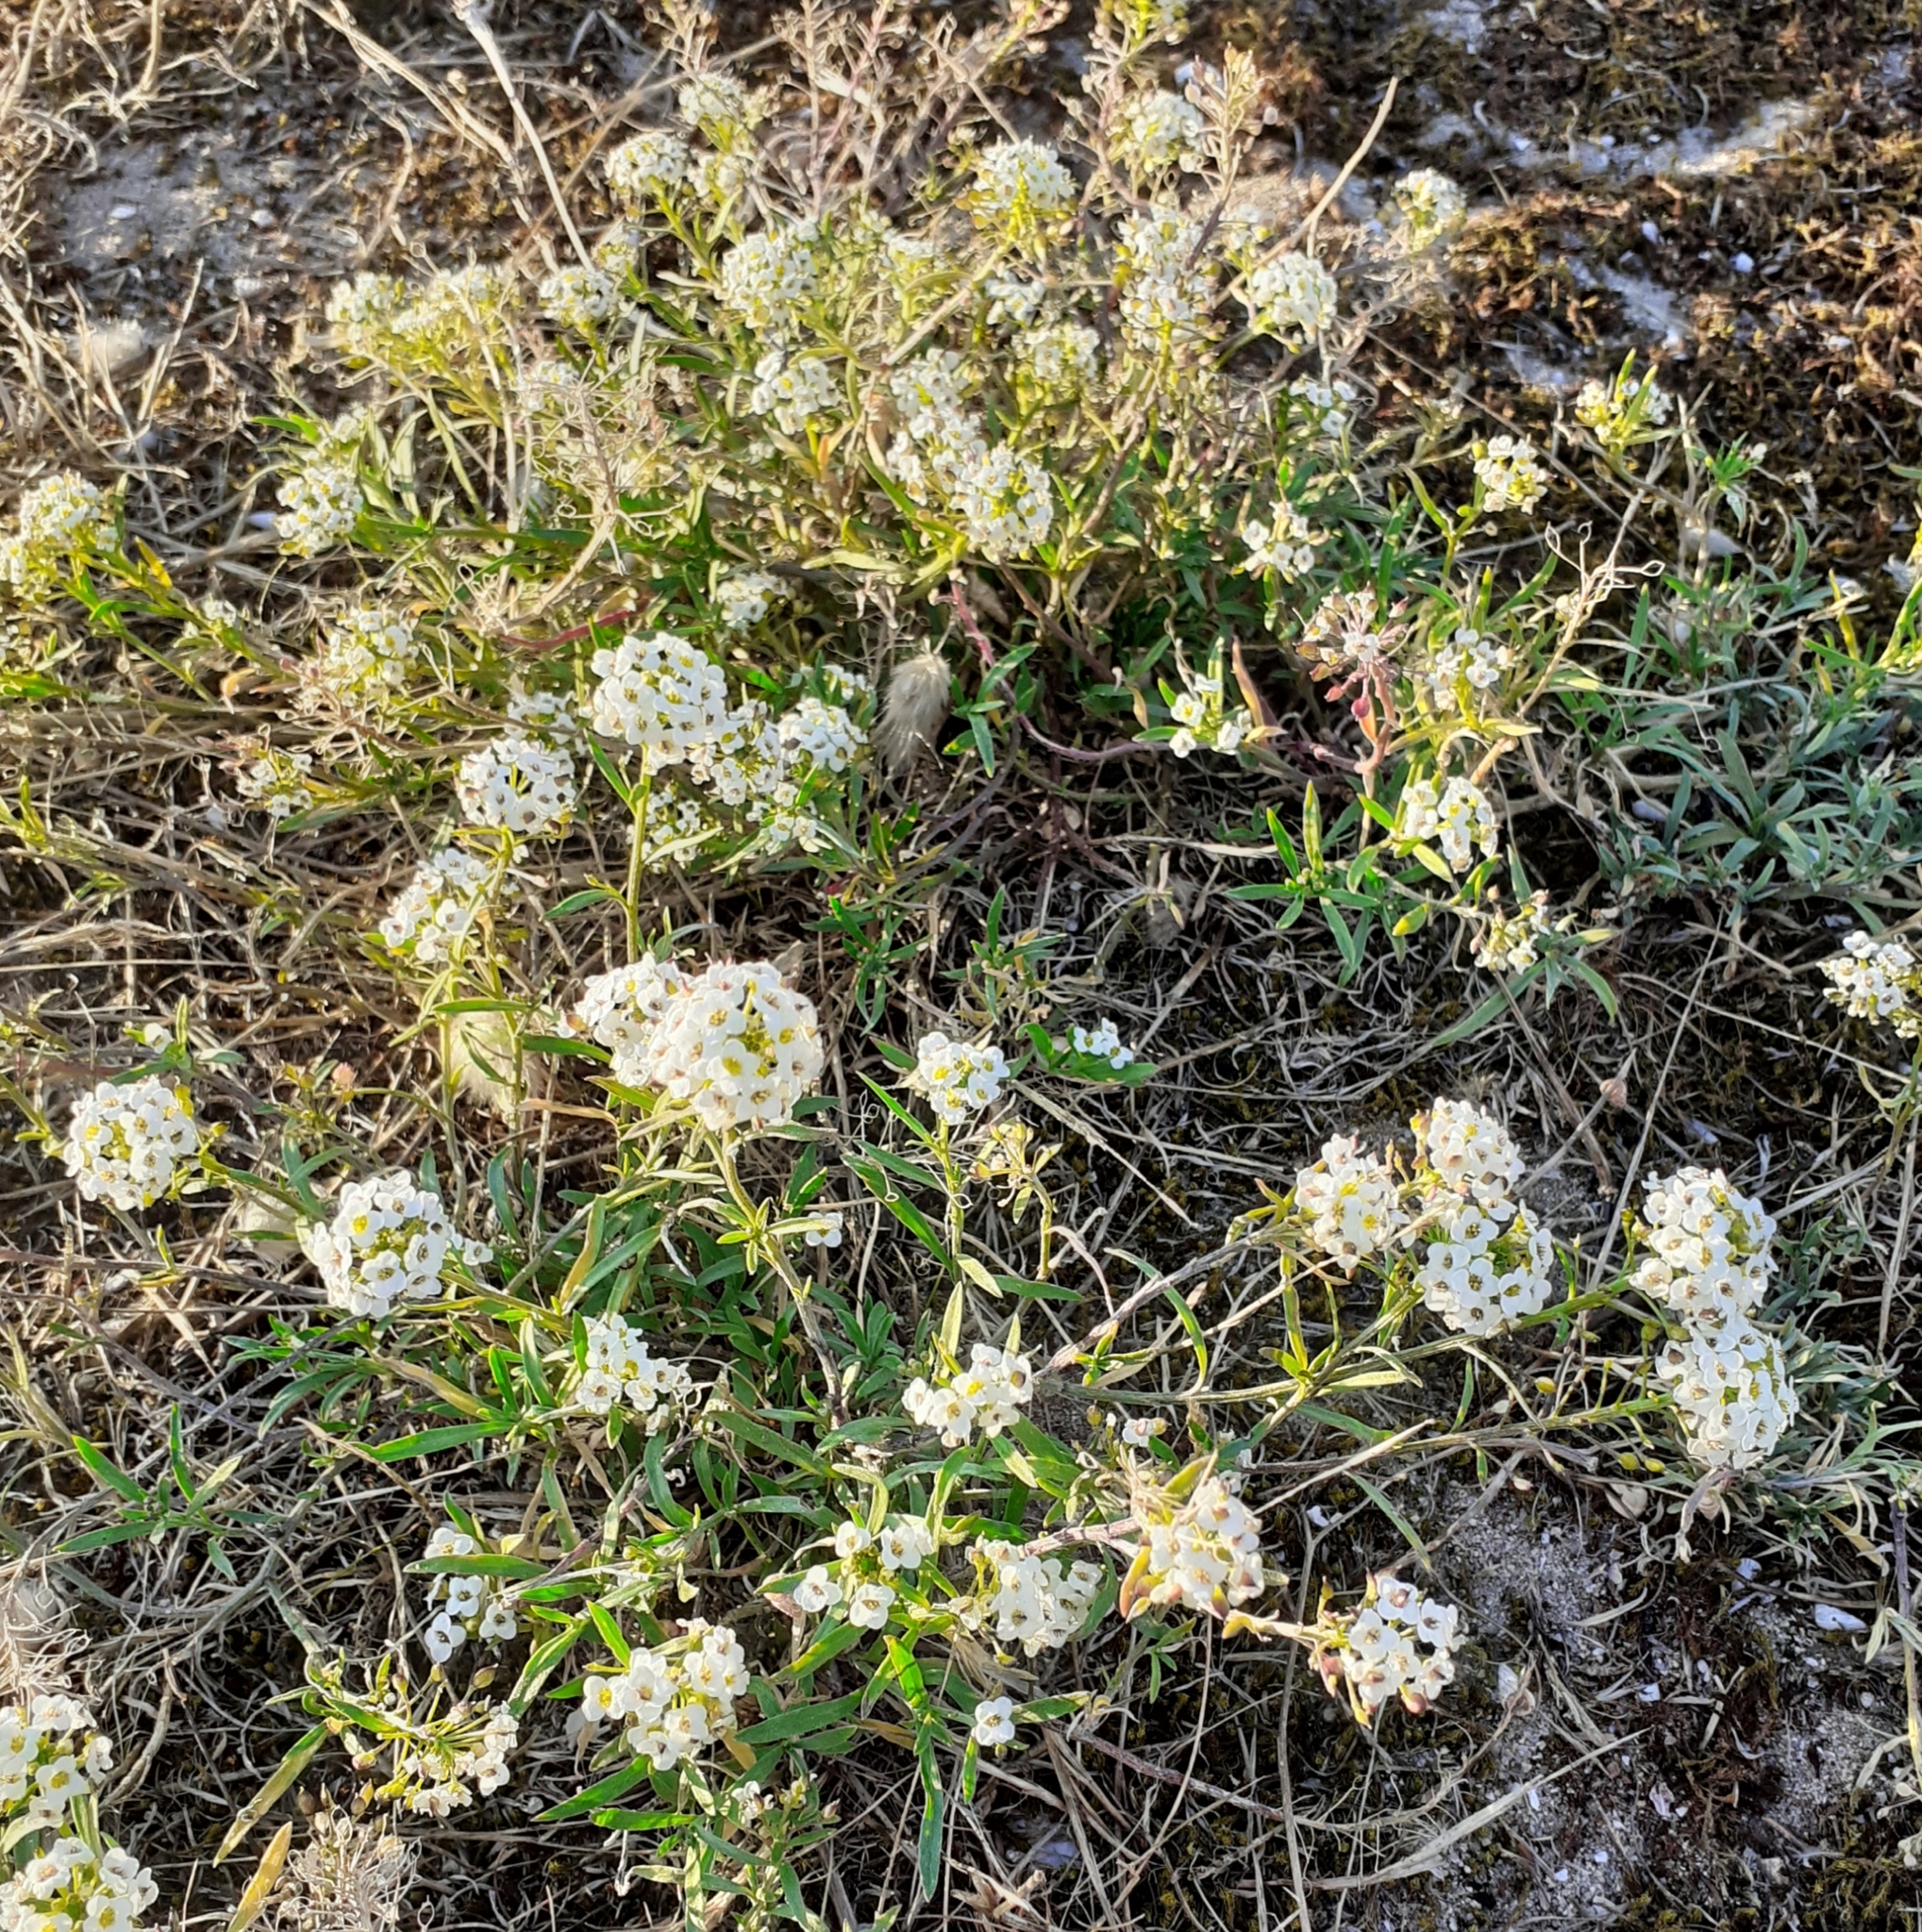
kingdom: Plantae
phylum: Tracheophyta
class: Magnoliopsida
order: Brassicales
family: Brassicaceae
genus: Lobularia
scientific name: Lobularia maritima
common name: Sweet alison
